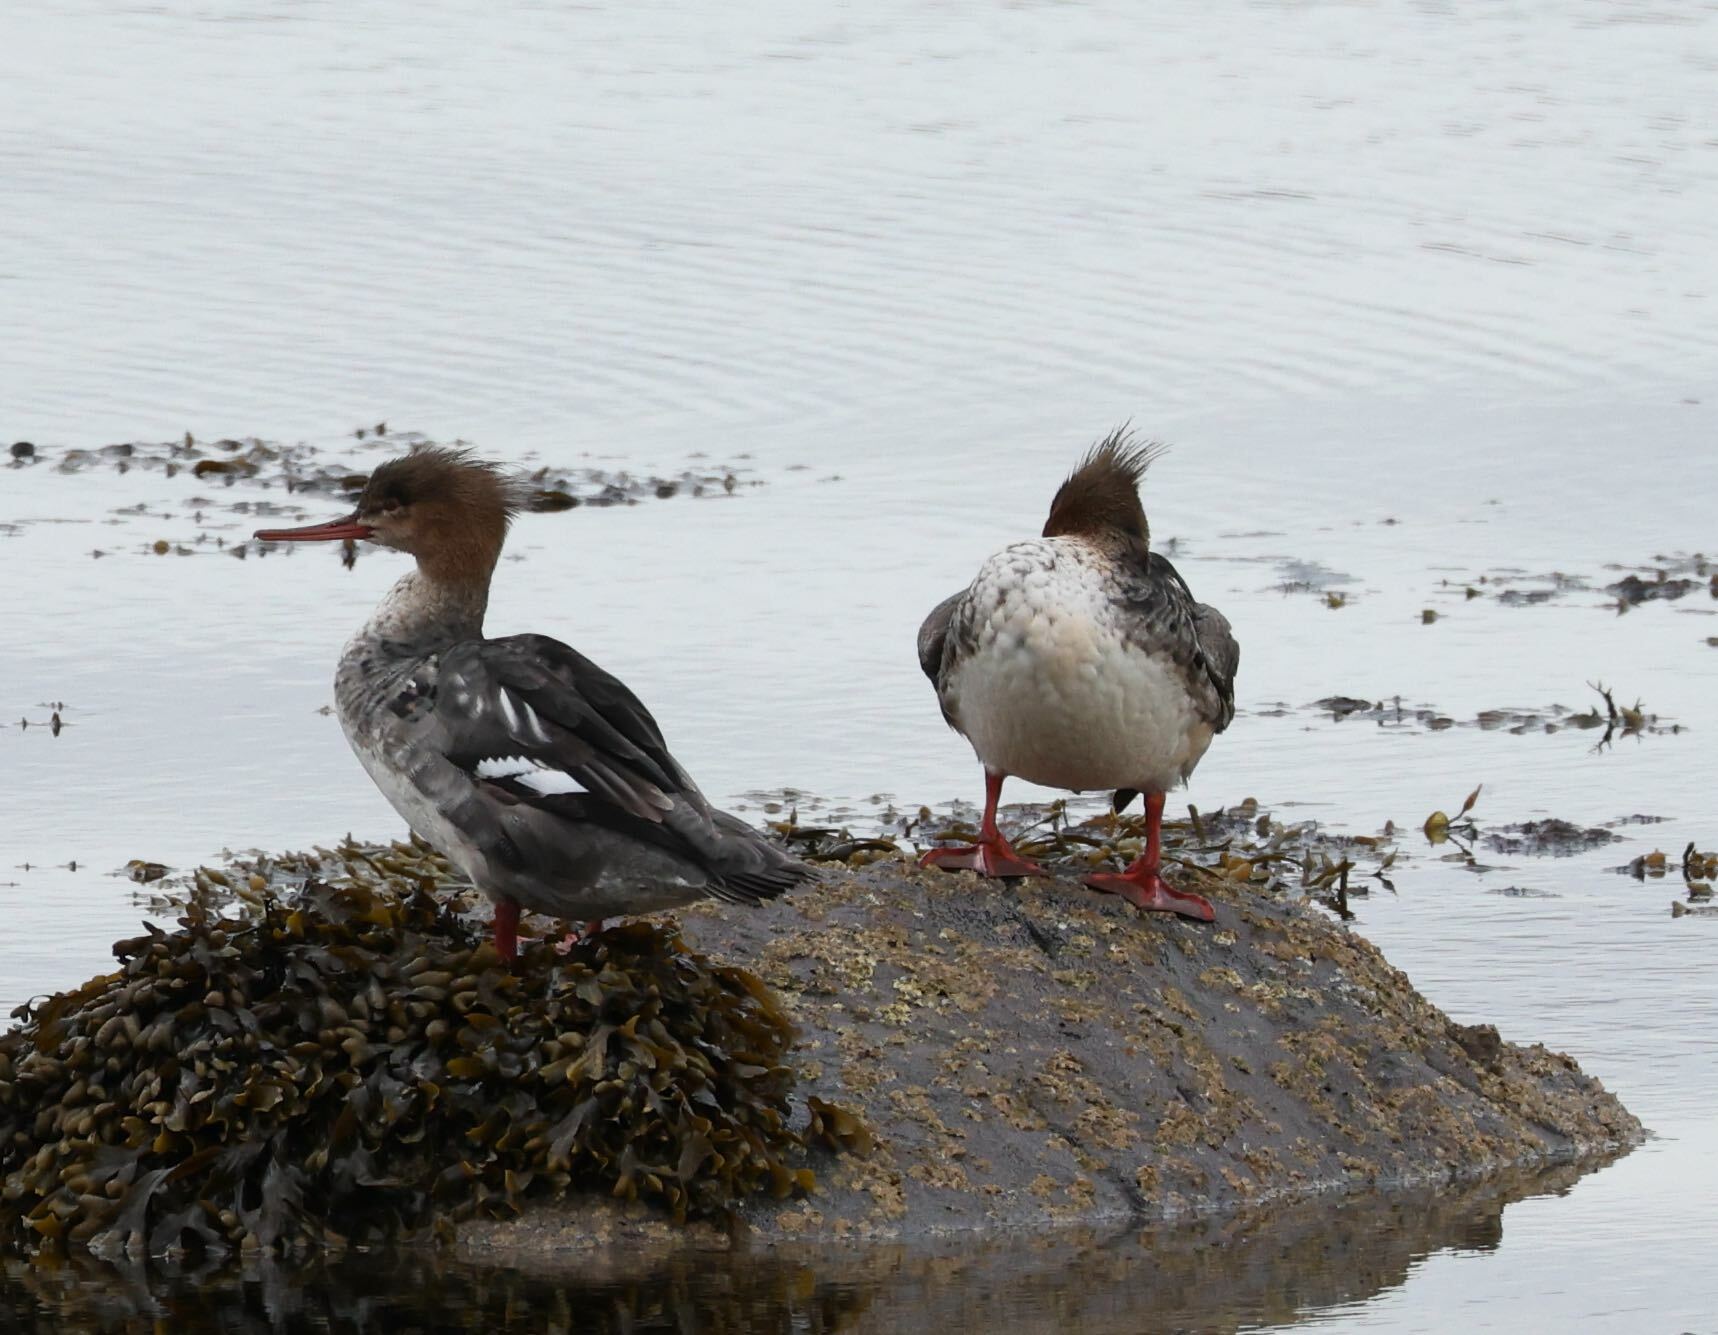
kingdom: Animalia
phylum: Chordata
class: Aves
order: Anseriformes
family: Anatidae
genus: Mergus
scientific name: Mergus serrator
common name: Red-breasted merganser
